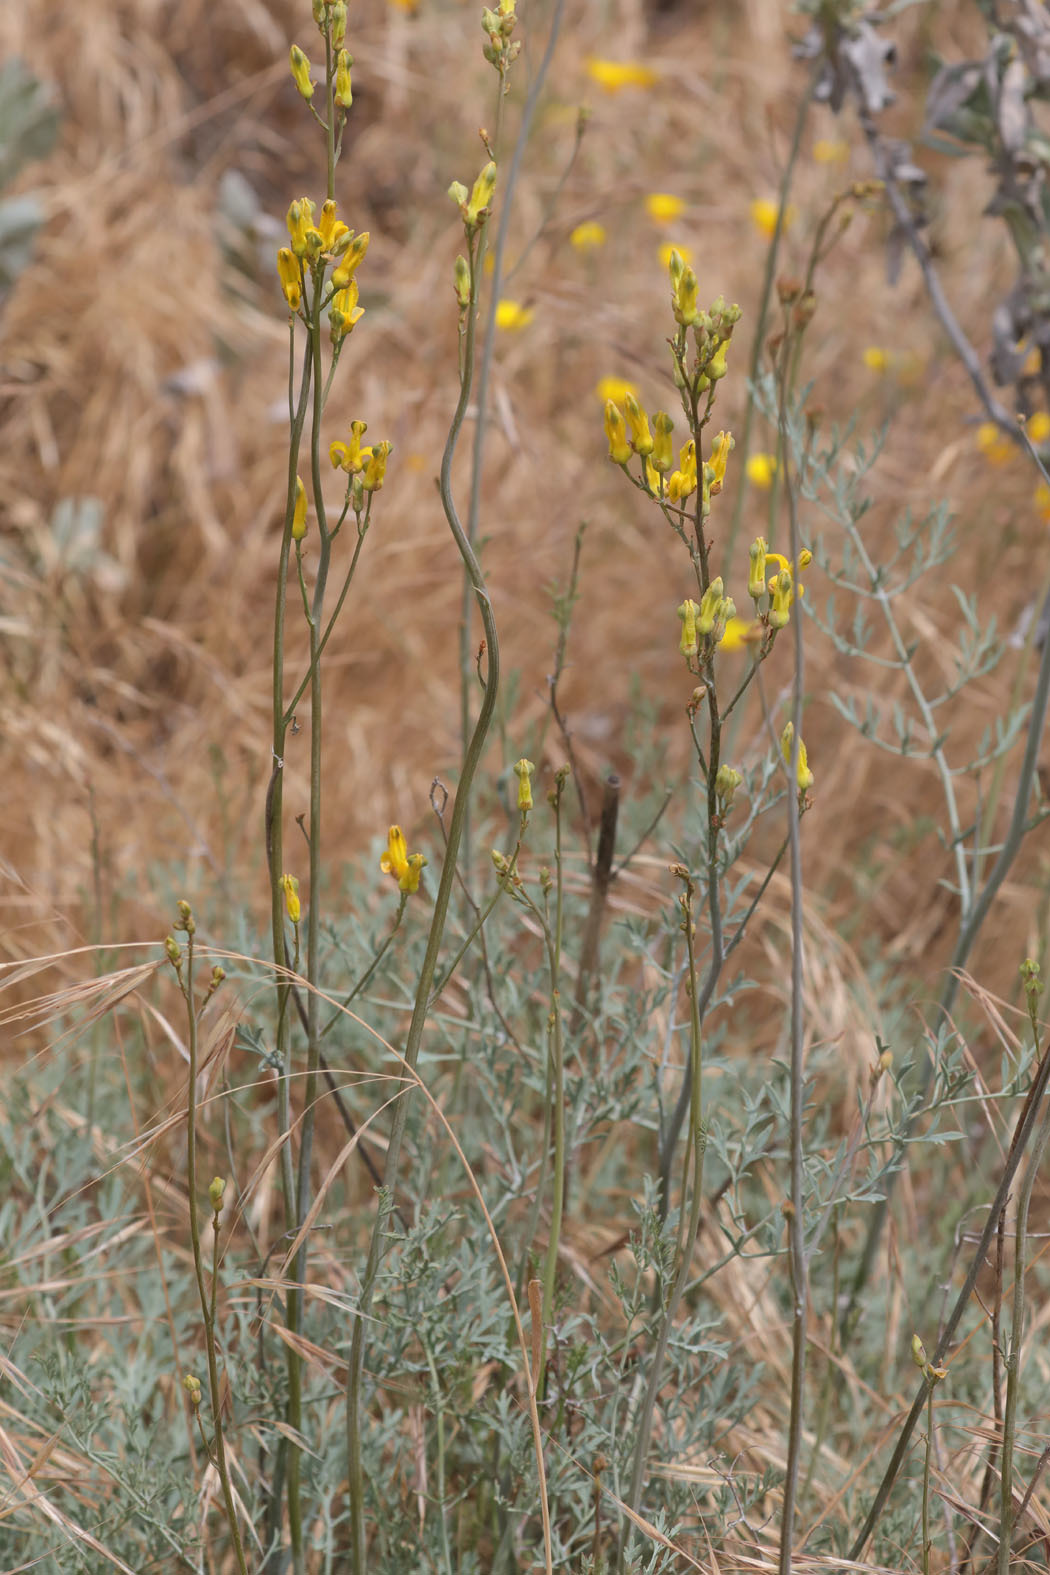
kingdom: Plantae
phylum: Tracheophyta
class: Magnoliopsida
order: Ranunculales
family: Papaveraceae
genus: Ehrendorferia
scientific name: Ehrendorferia chrysantha
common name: Golden eardrops
